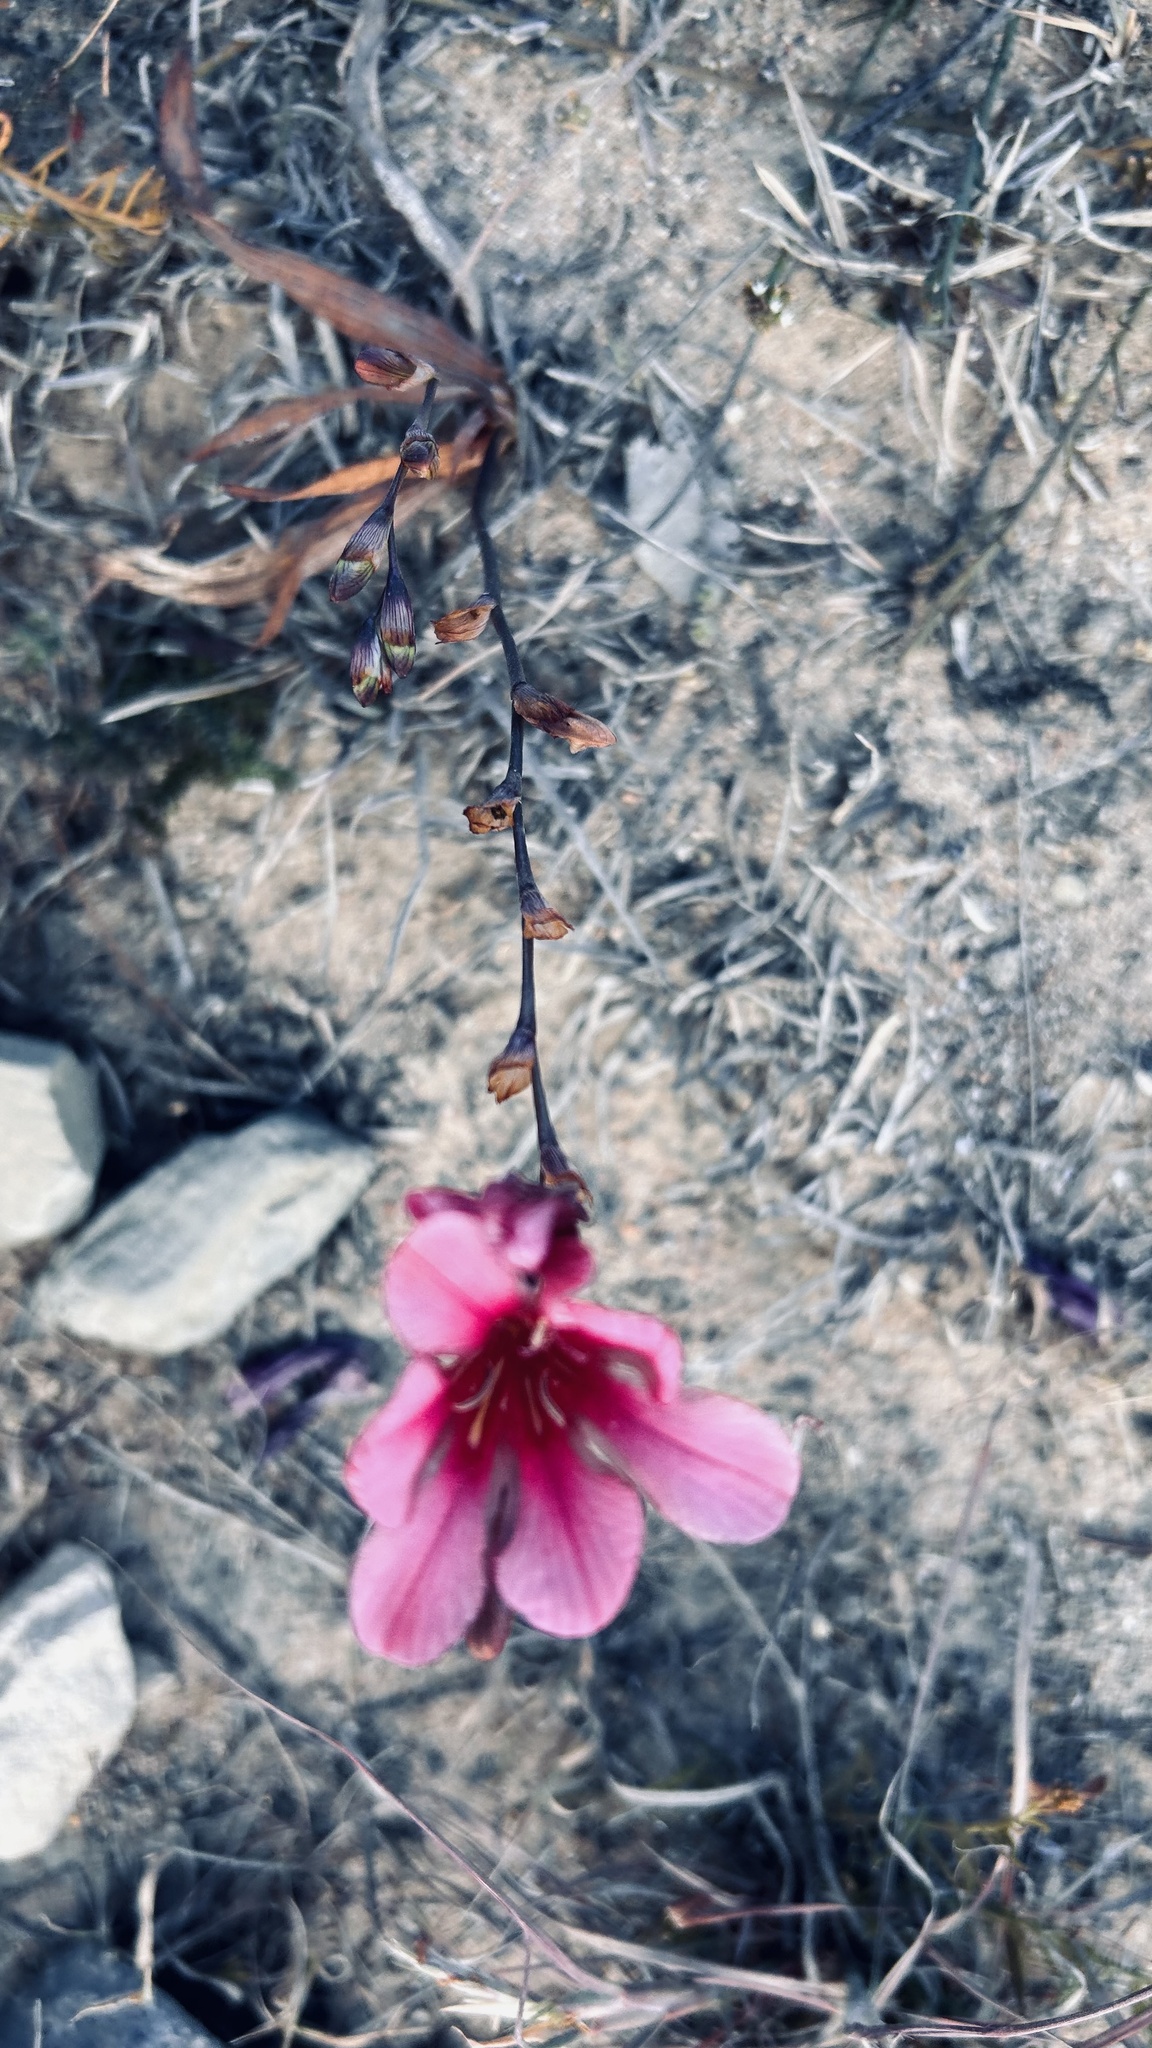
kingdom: Plantae
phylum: Tracheophyta
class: Liliopsida
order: Asparagales
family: Iridaceae
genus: Tritonia
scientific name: Tritonia squalida
